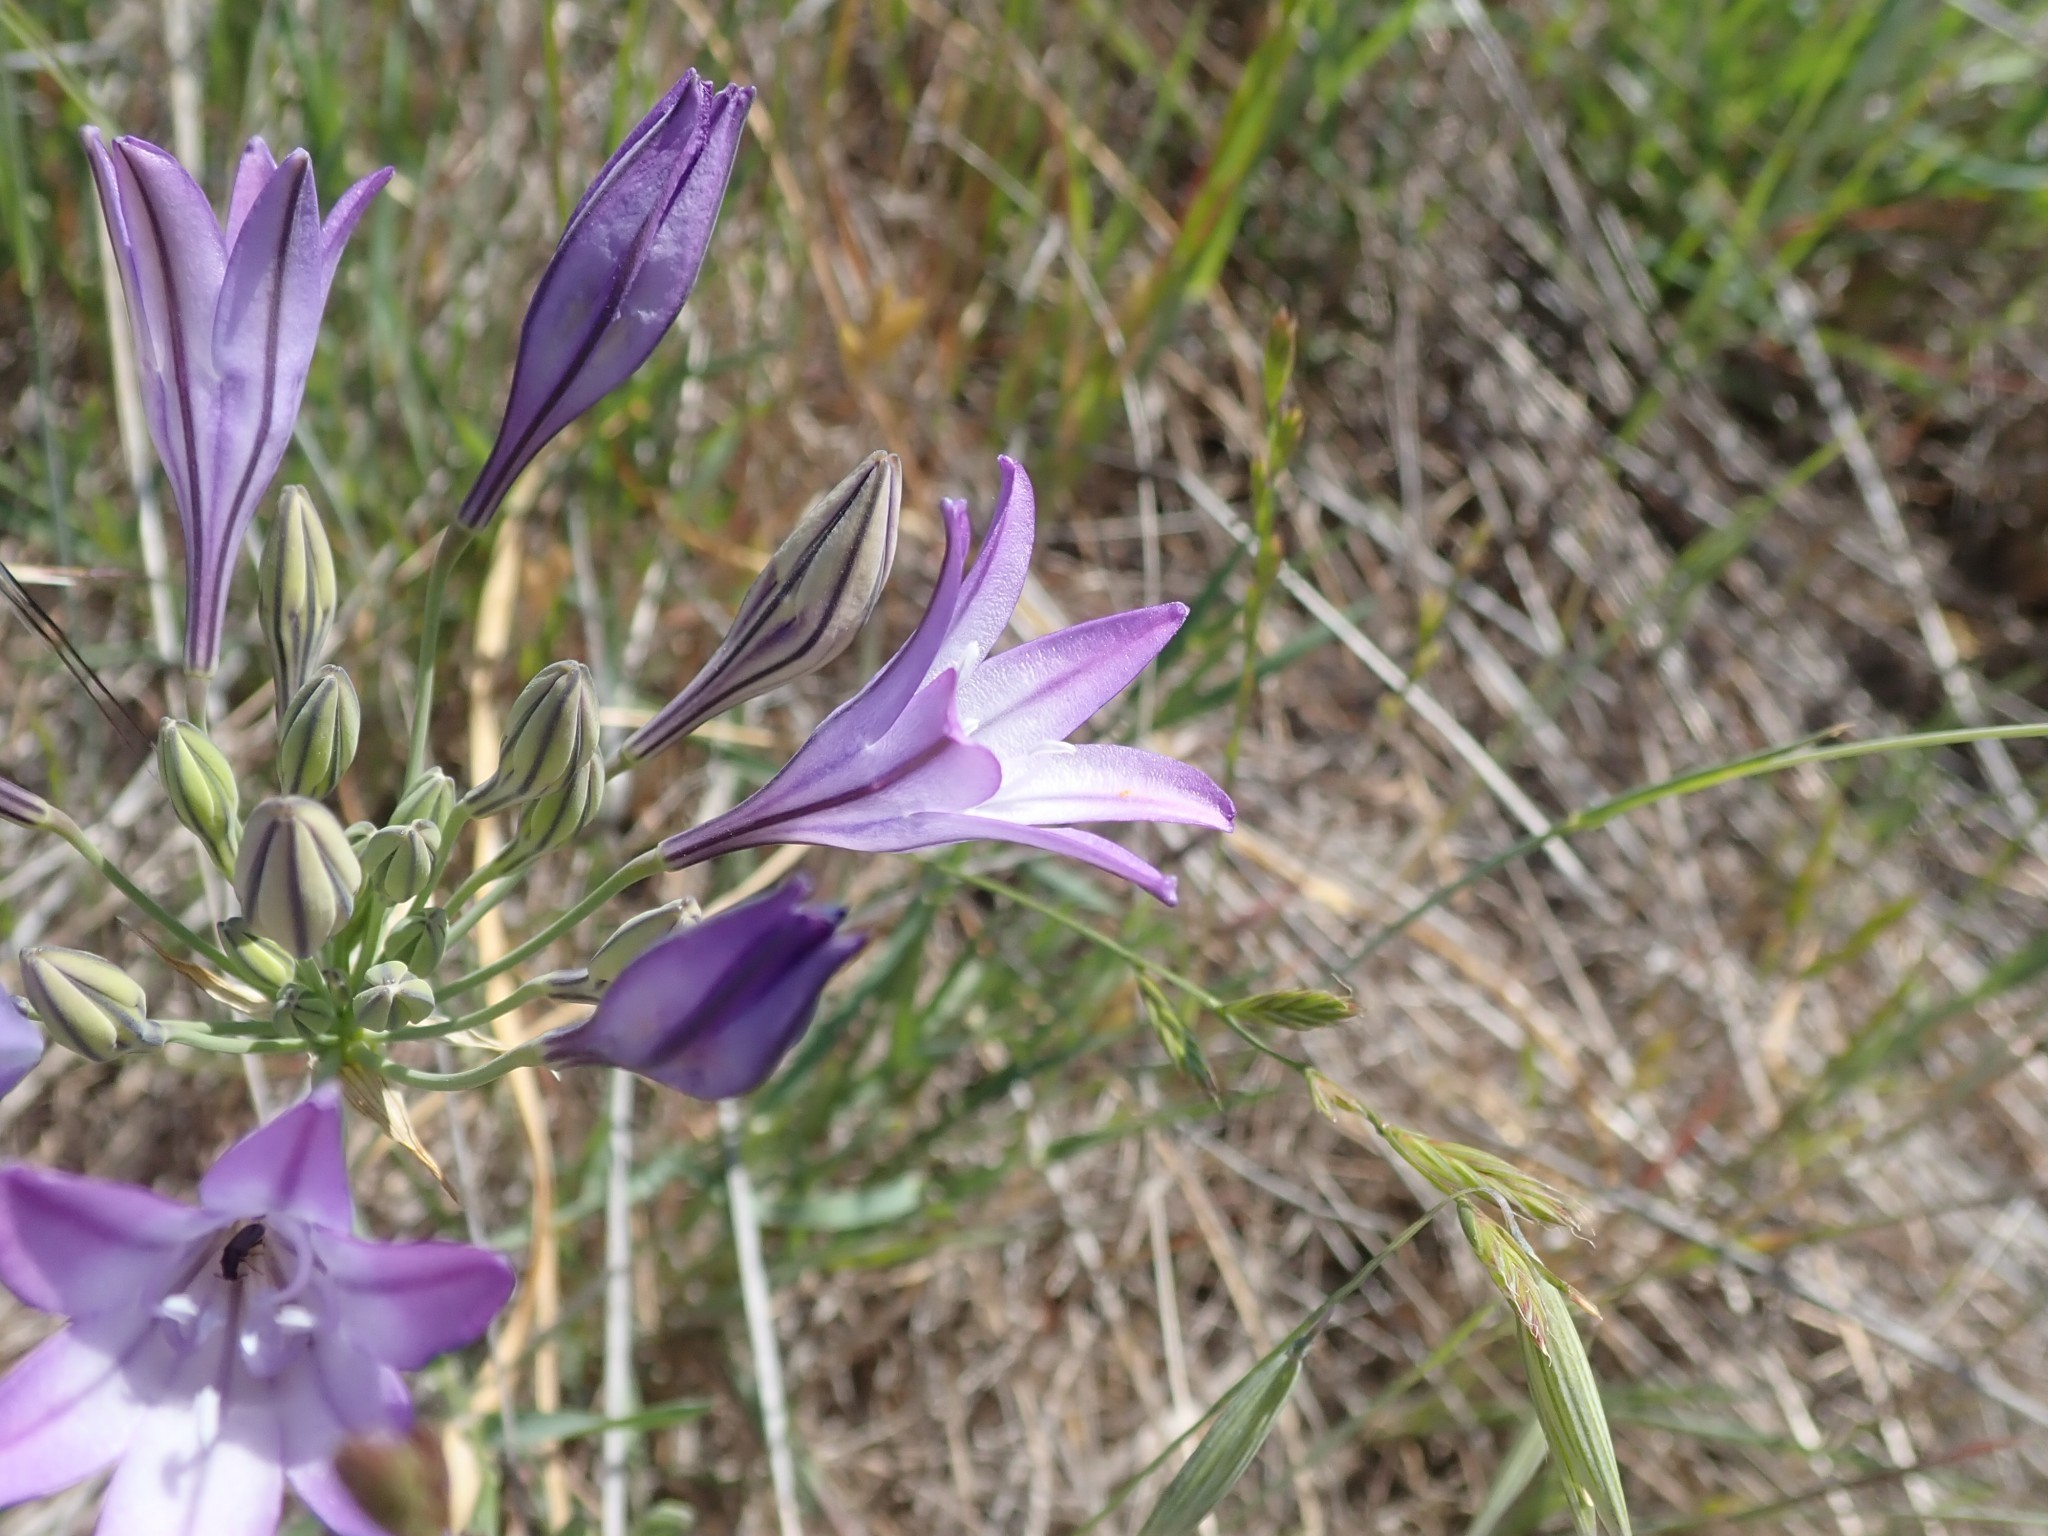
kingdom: Plantae
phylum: Tracheophyta
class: Liliopsida
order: Asparagales
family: Asparagaceae
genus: Triteleia
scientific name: Triteleia laxa
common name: Triplet-lily
